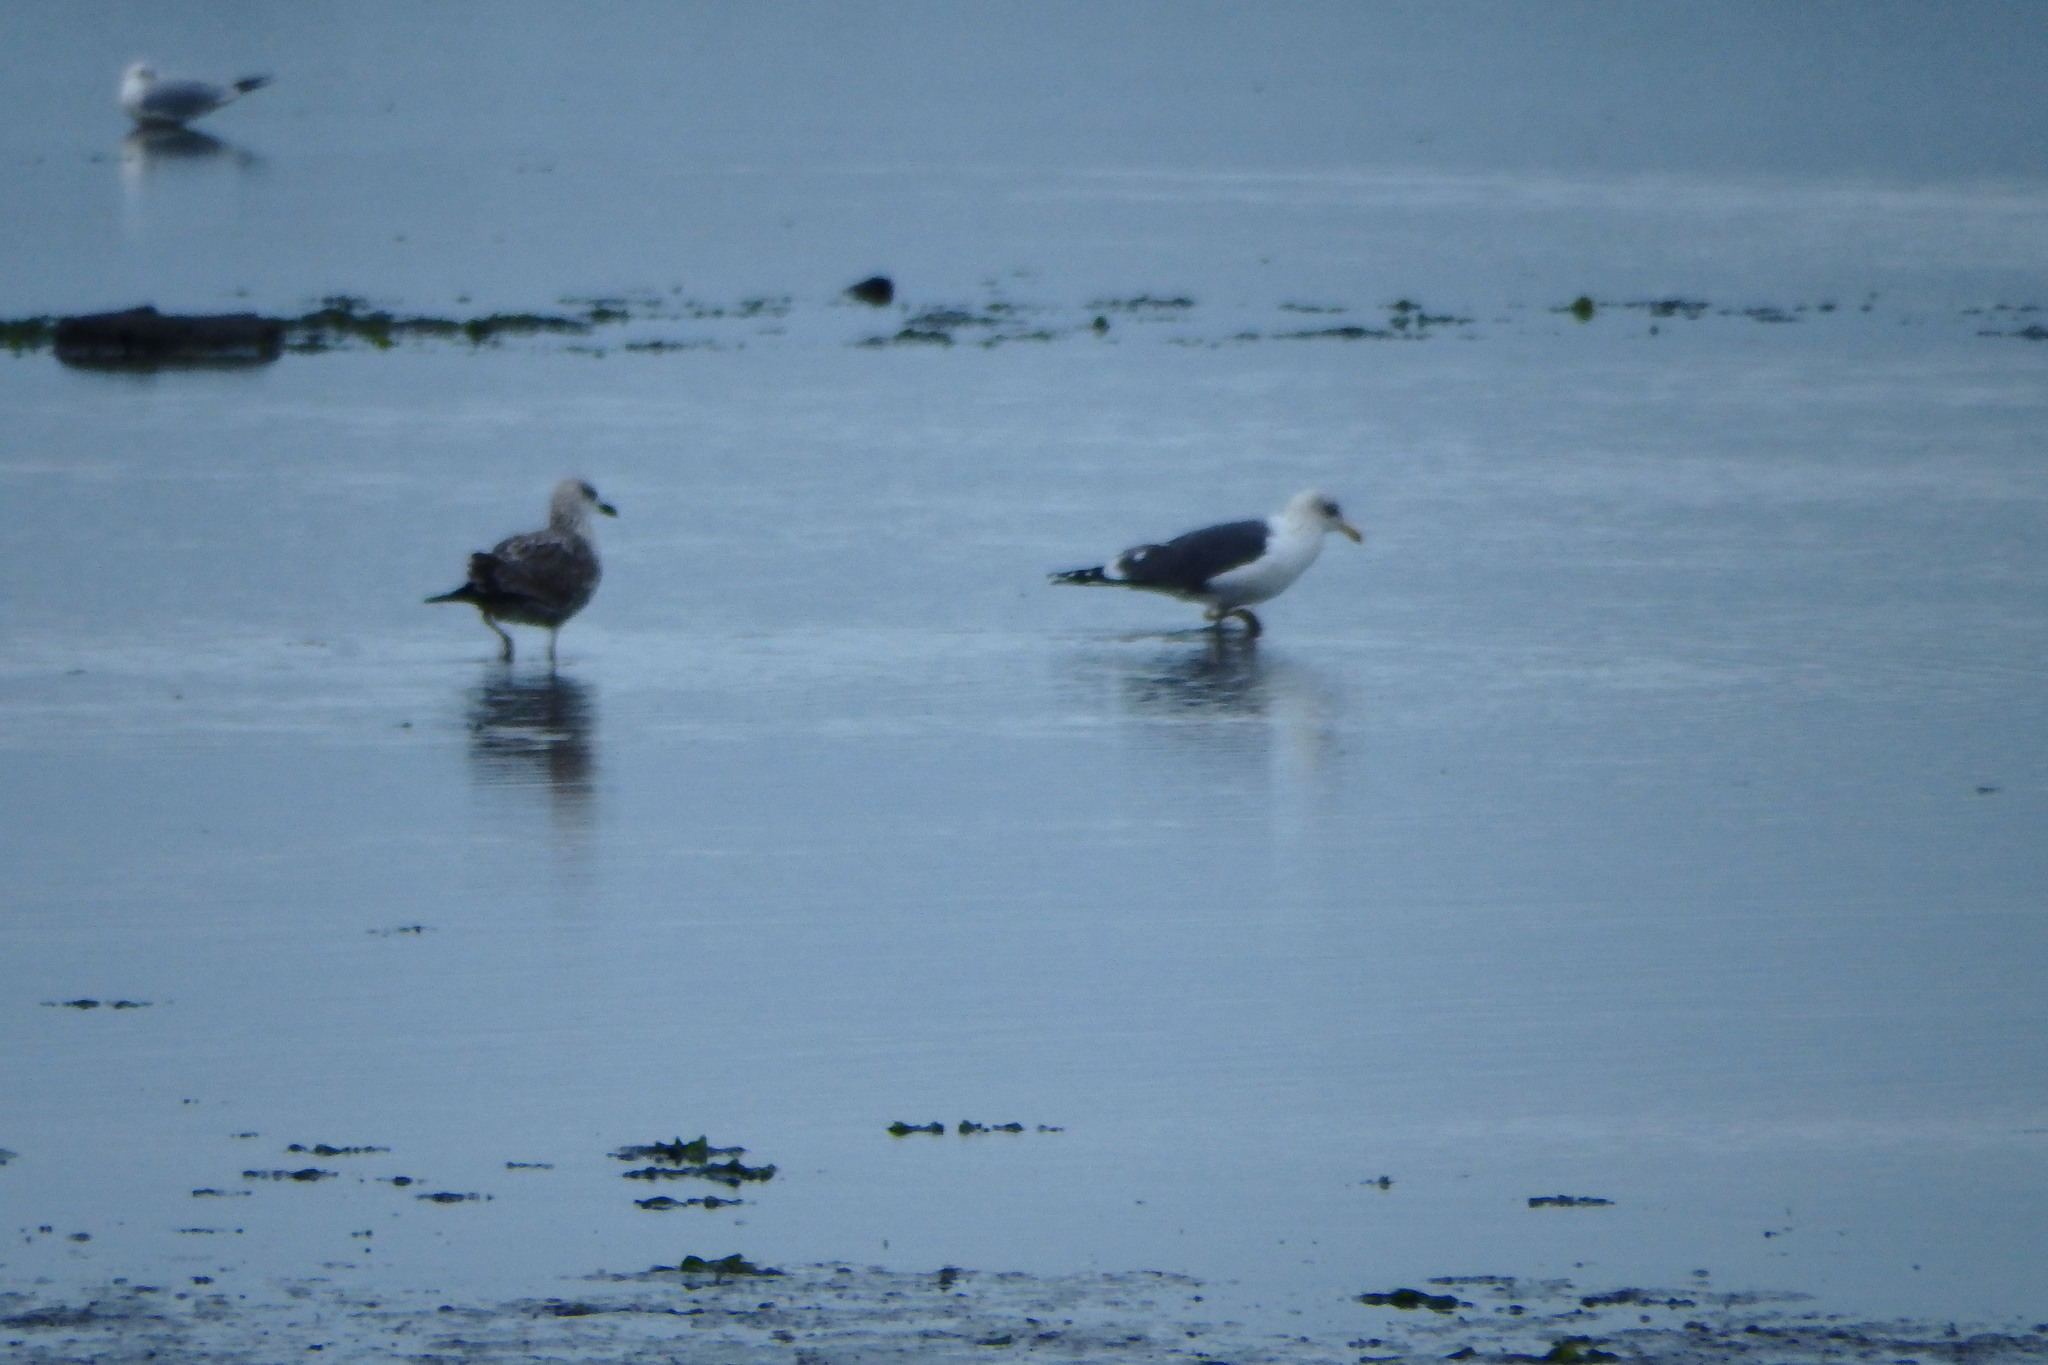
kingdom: Animalia
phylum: Chordata
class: Aves
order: Charadriiformes
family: Laridae
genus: Larus
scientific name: Larus fuscus
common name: Lesser black-backed gull
